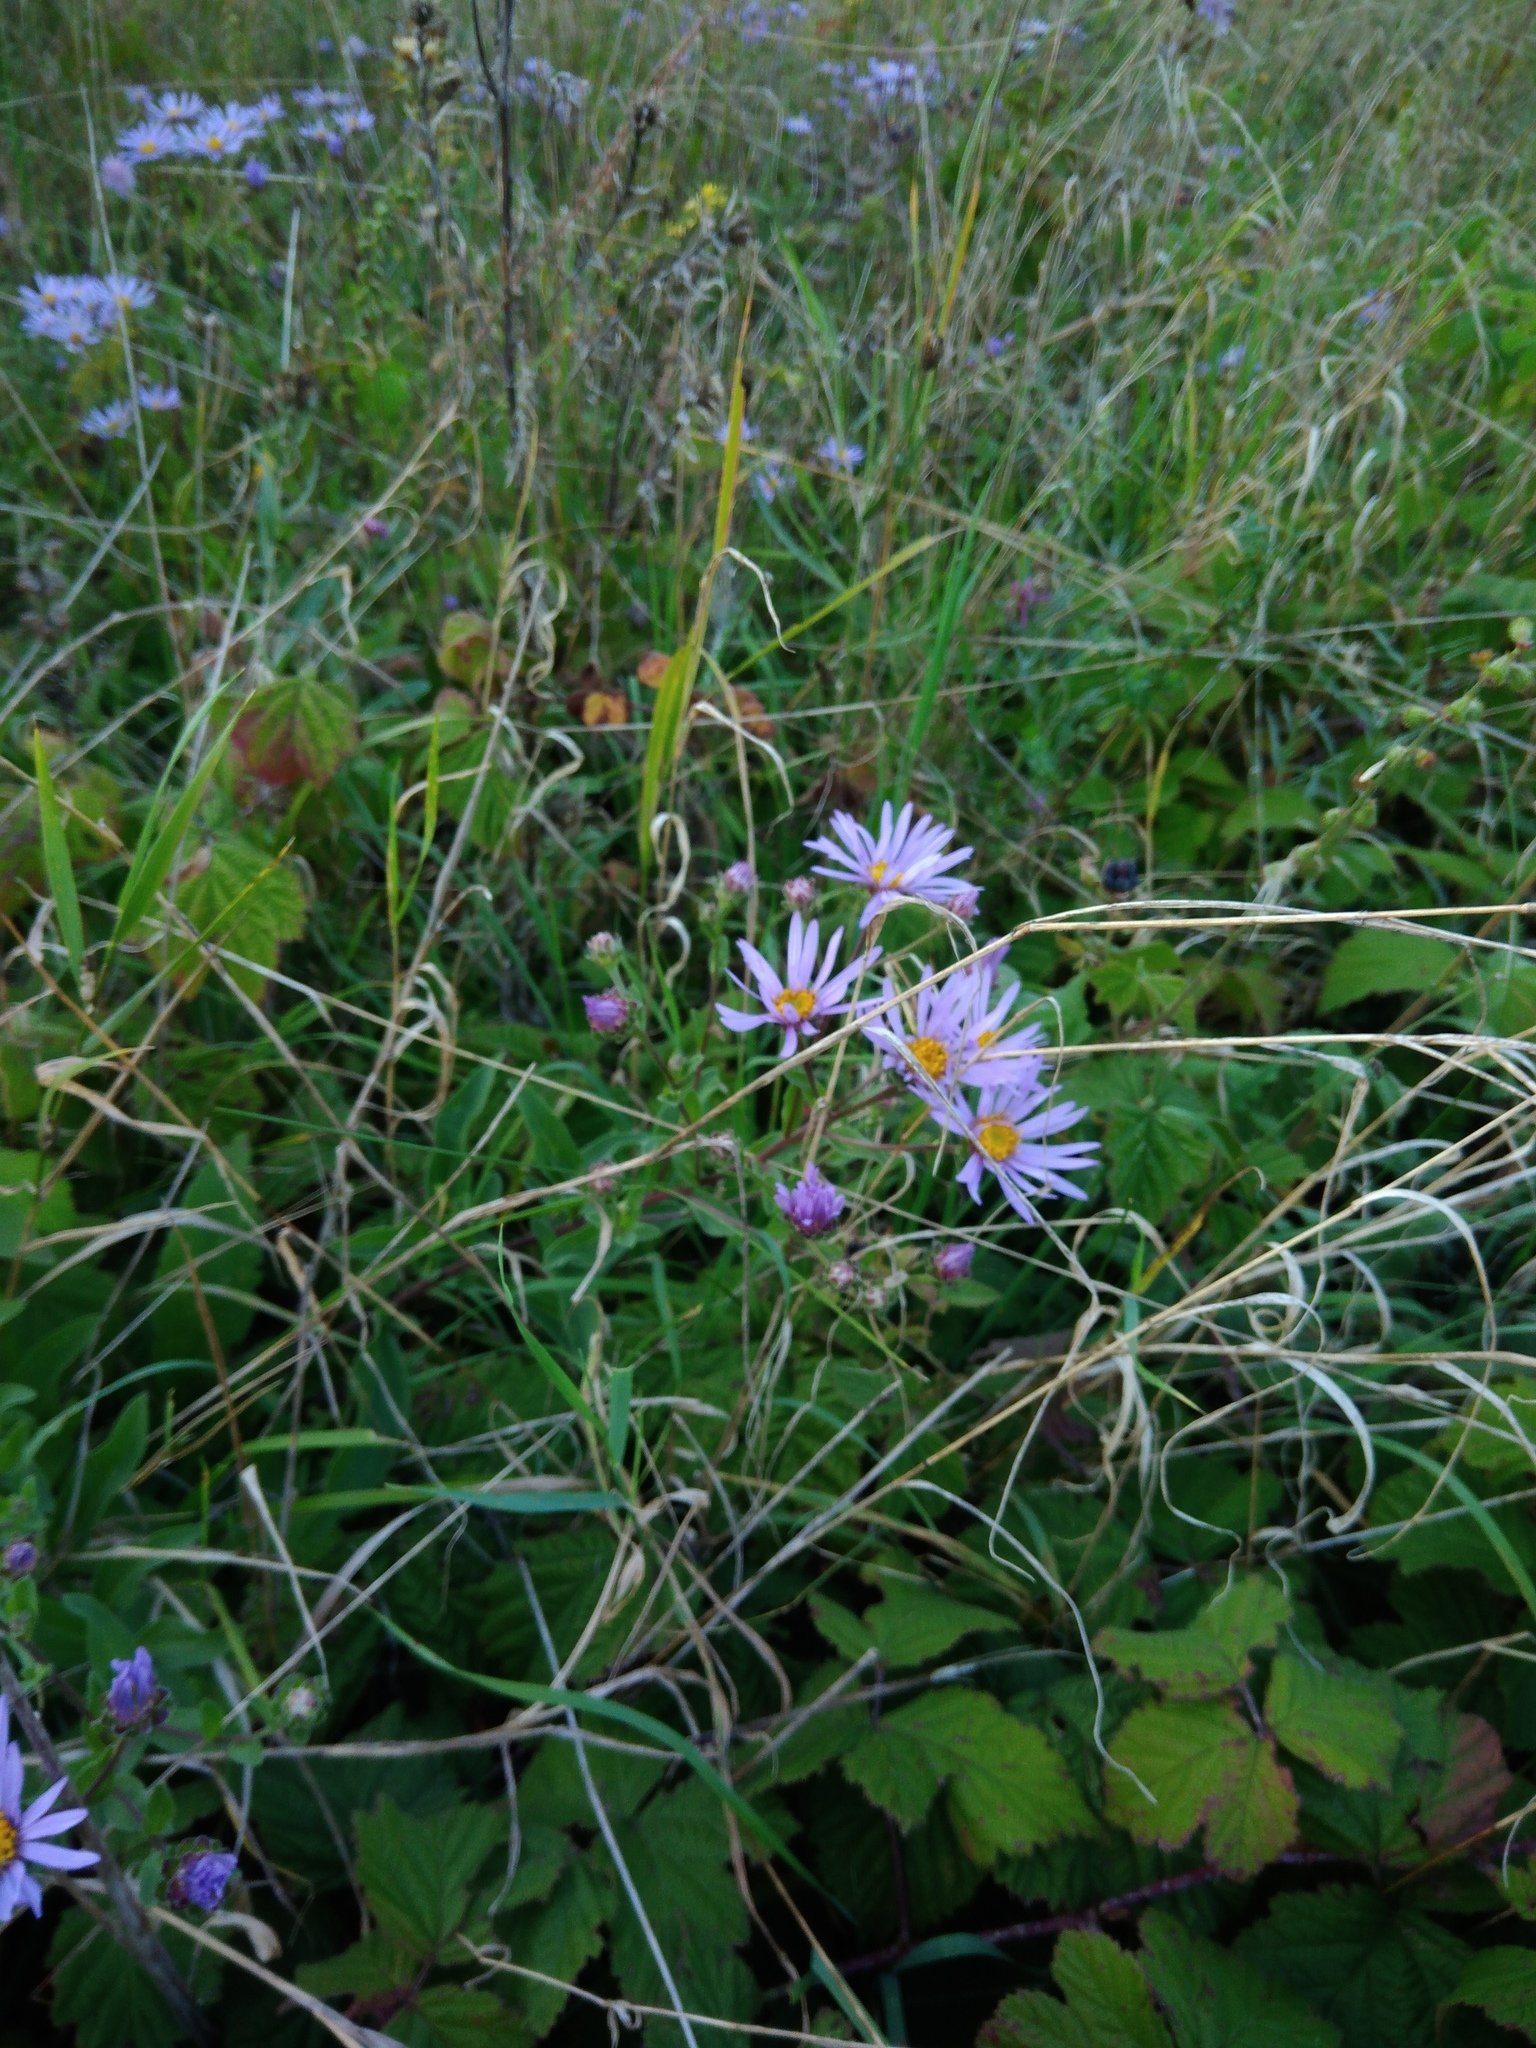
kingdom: Plantae
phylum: Tracheophyta
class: Magnoliopsida
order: Asterales
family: Asteraceae
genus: Aster
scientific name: Aster amellus
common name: European michaelmas daisy
